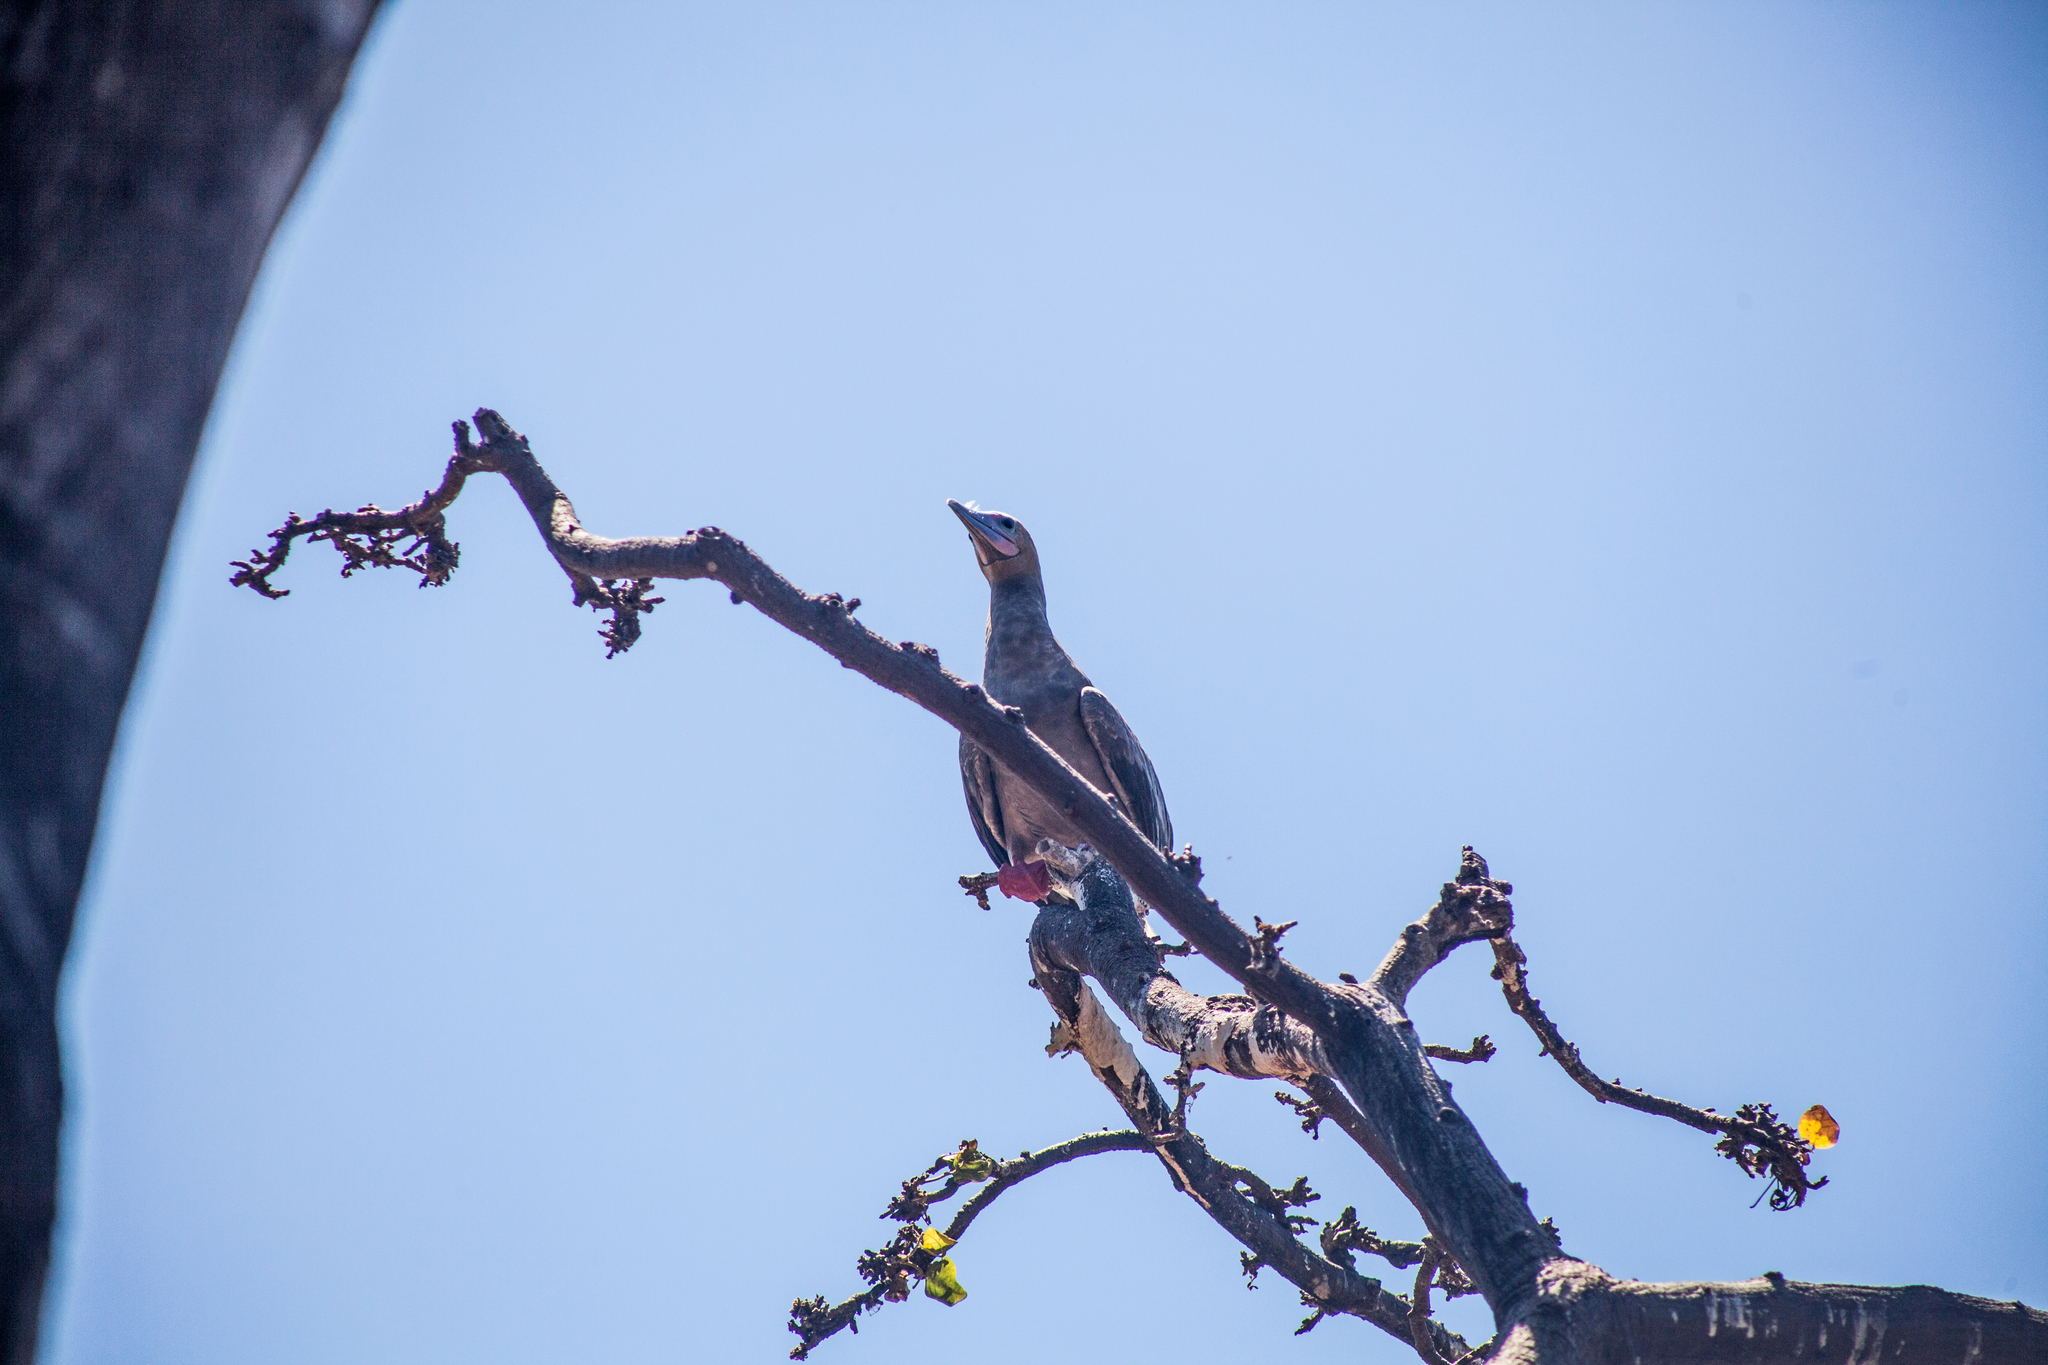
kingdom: Animalia
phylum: Chordata
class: Aves
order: Suliformes
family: Sulidae
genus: Sula
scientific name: Sula sula
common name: Red-footed booby
